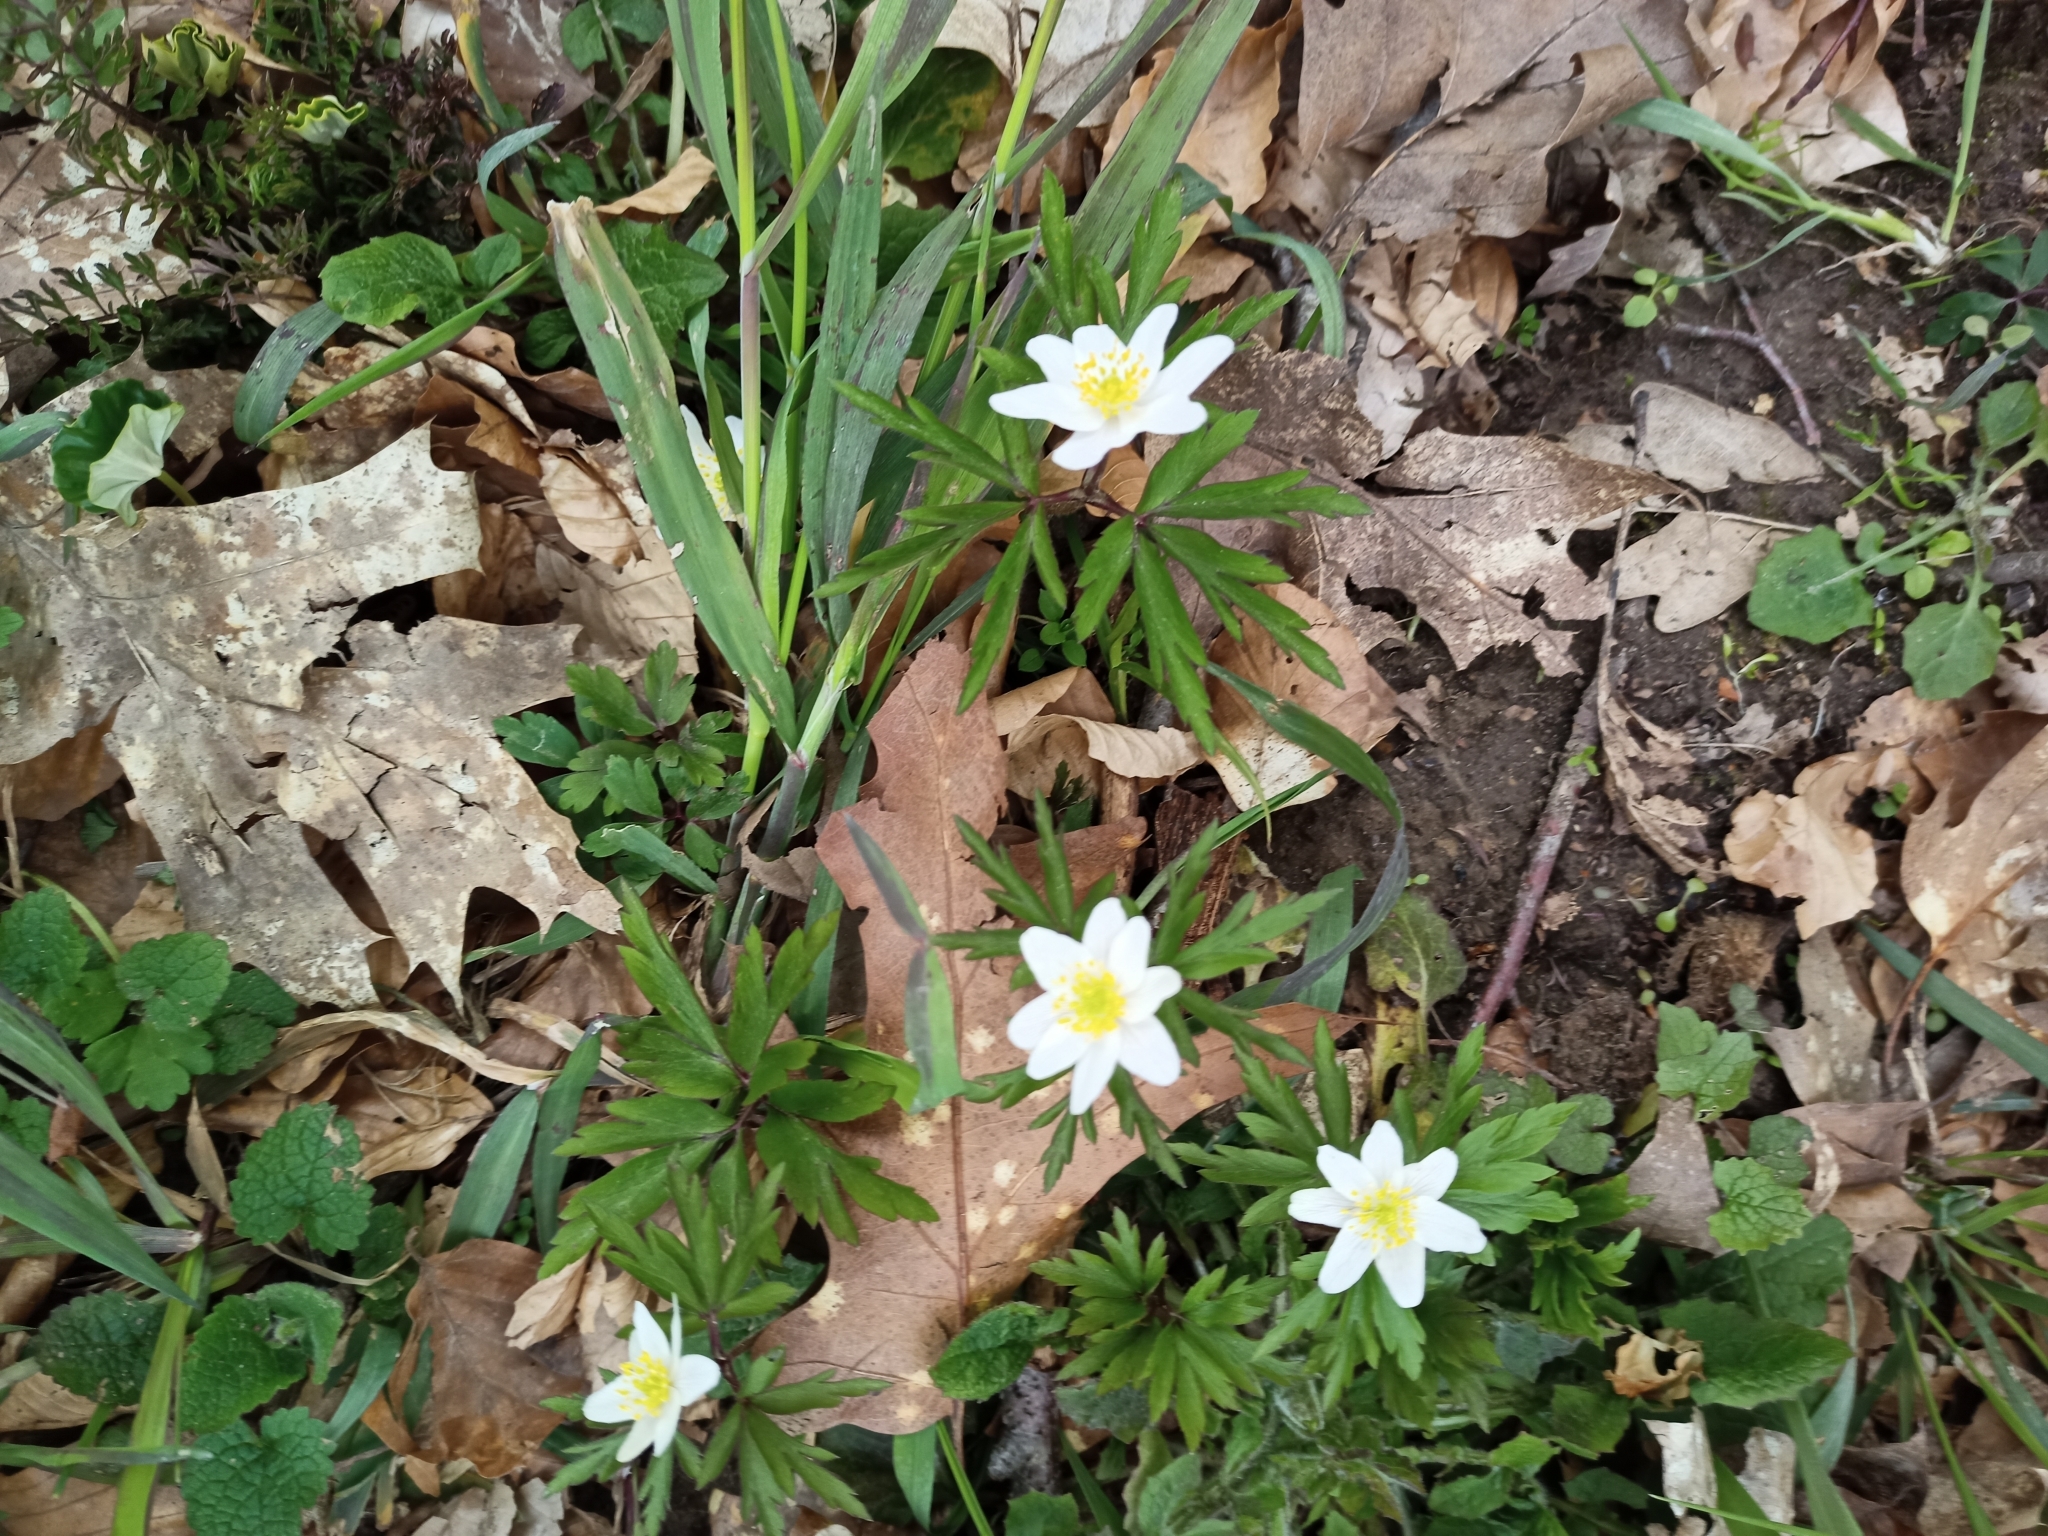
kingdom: Plantae
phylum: Tracheophyta
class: Magnoliopsida
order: Ranunculales
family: Ranunculaceae
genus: Anemone
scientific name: Anemone nemorosa
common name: Wood anemone
